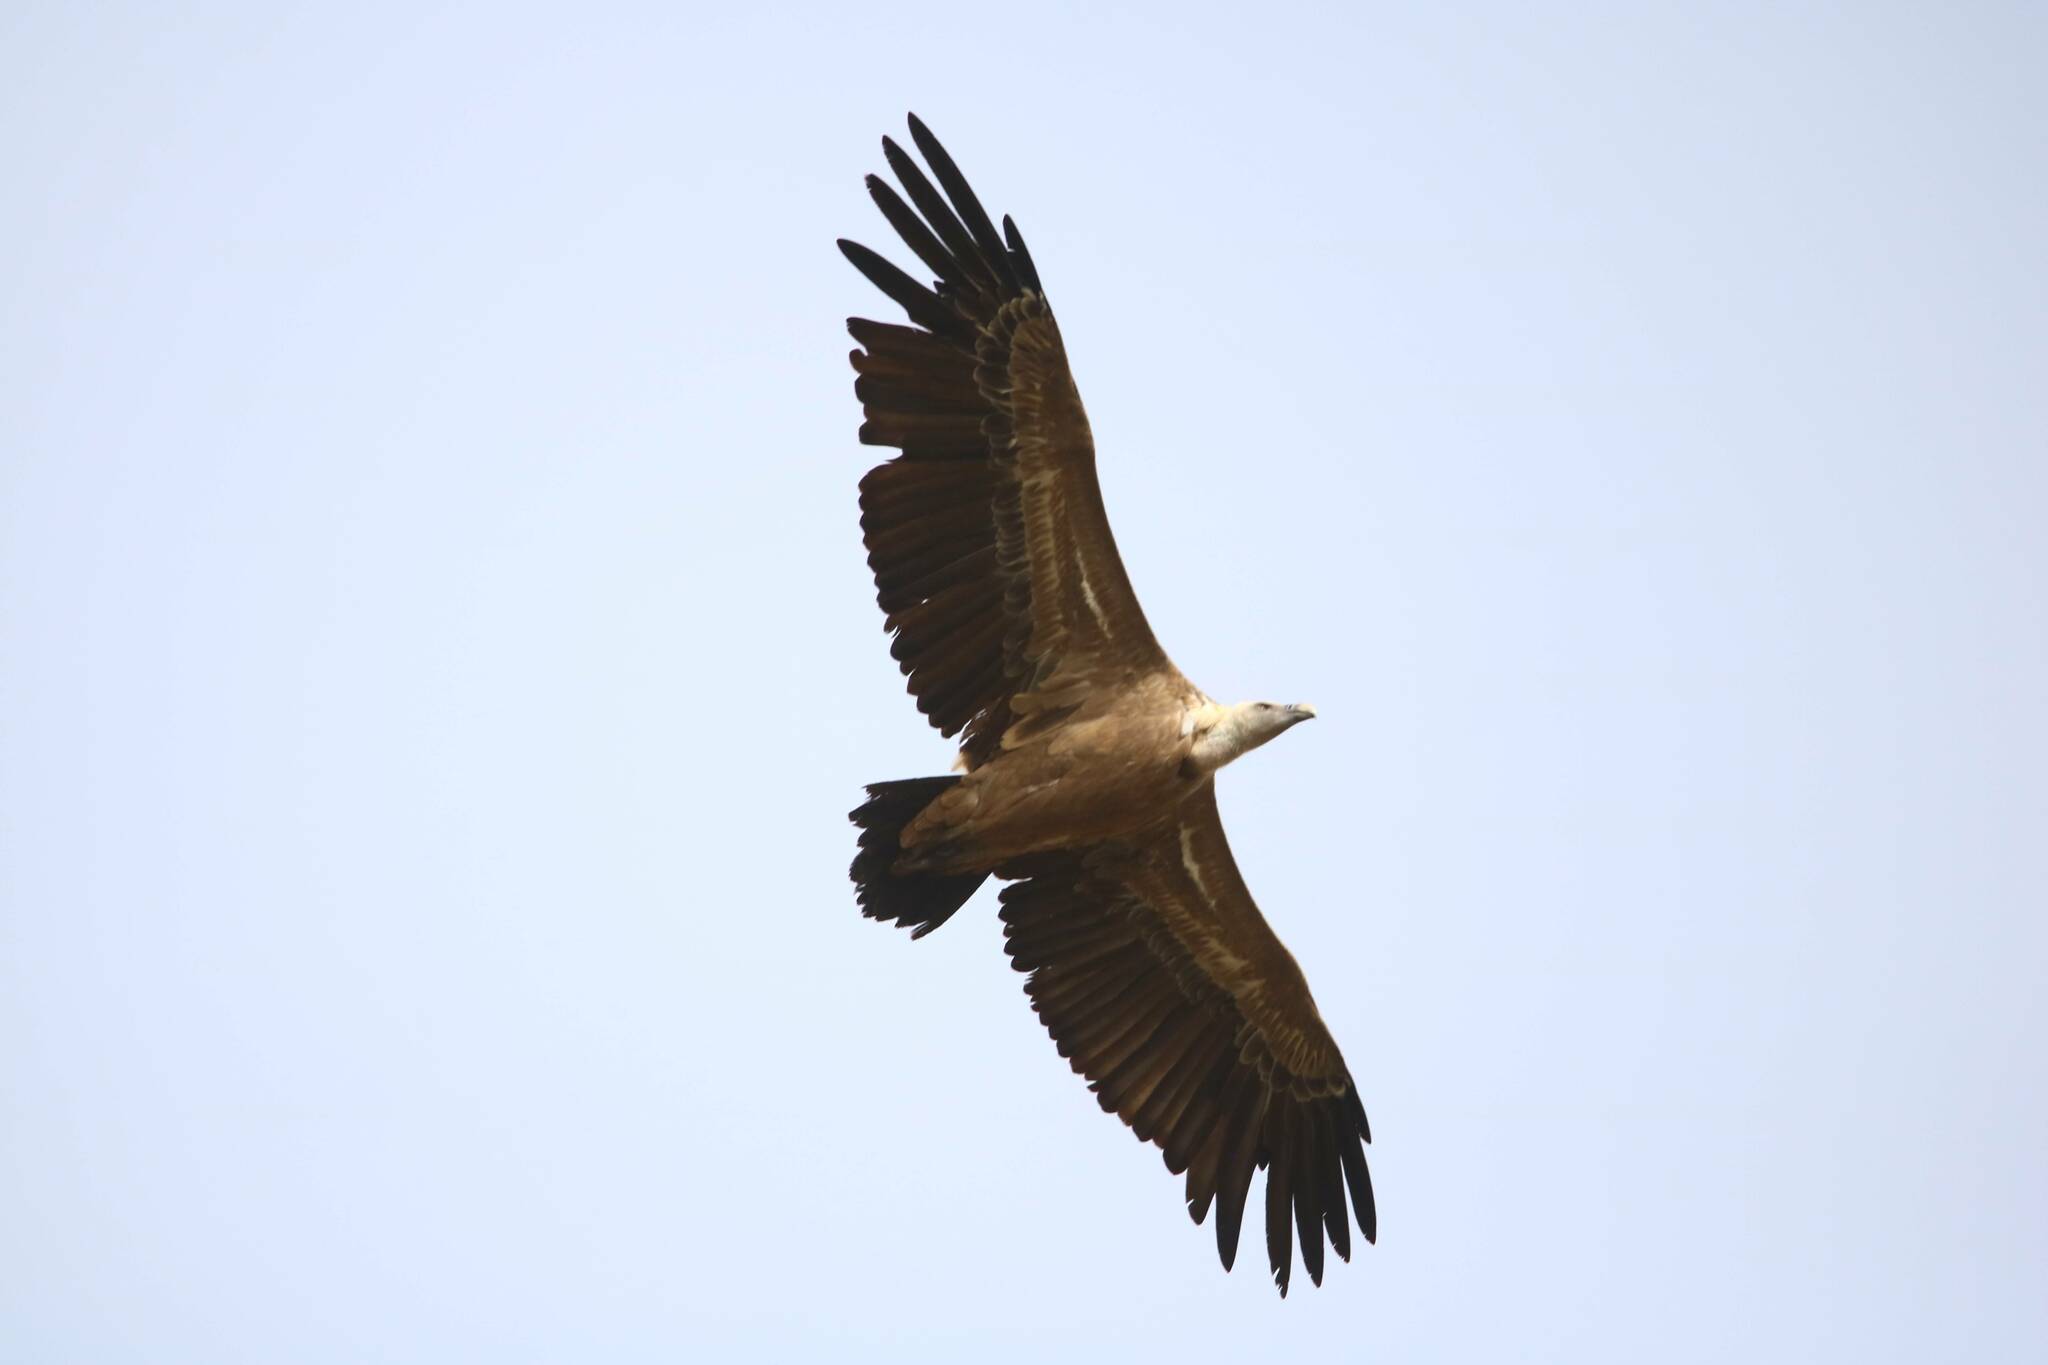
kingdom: Animalia
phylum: Chordata
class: Aves
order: Accipitriformes
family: Accipitridae
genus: Gyps
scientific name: Gyps fulvus
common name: Griffon vulture
